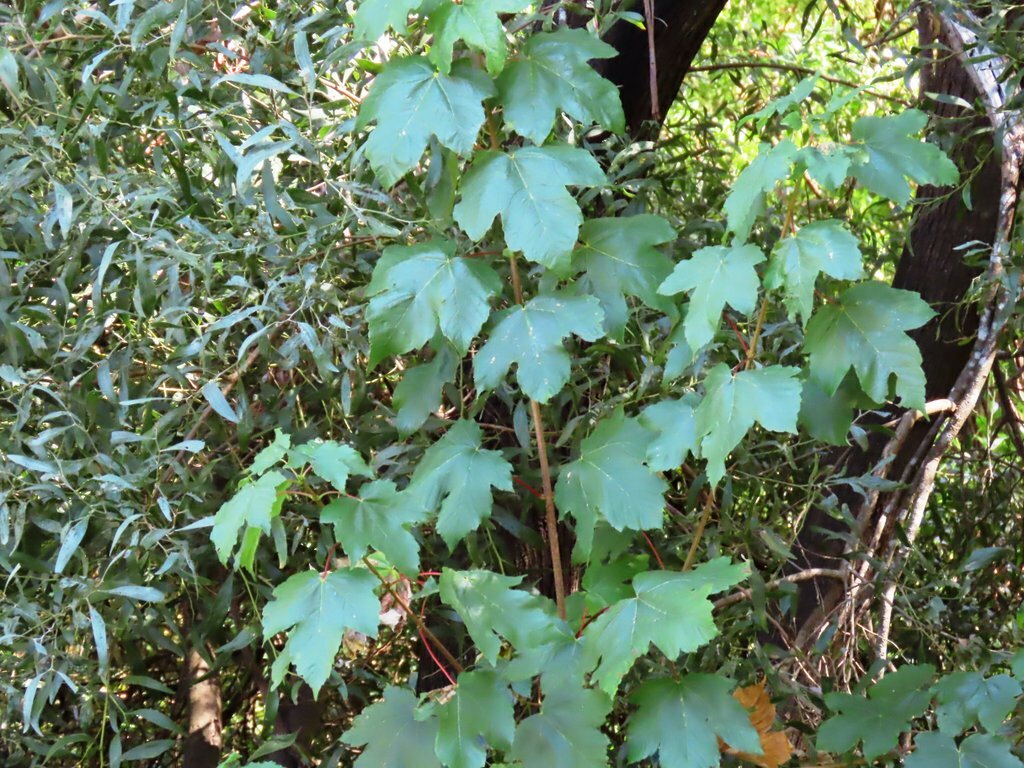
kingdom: Plantae
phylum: Tracheophyta
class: Magnoliopsida
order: Sapindales
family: Sapindaceae
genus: Acer
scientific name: Acer pseudoplatanus
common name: Sycamore
